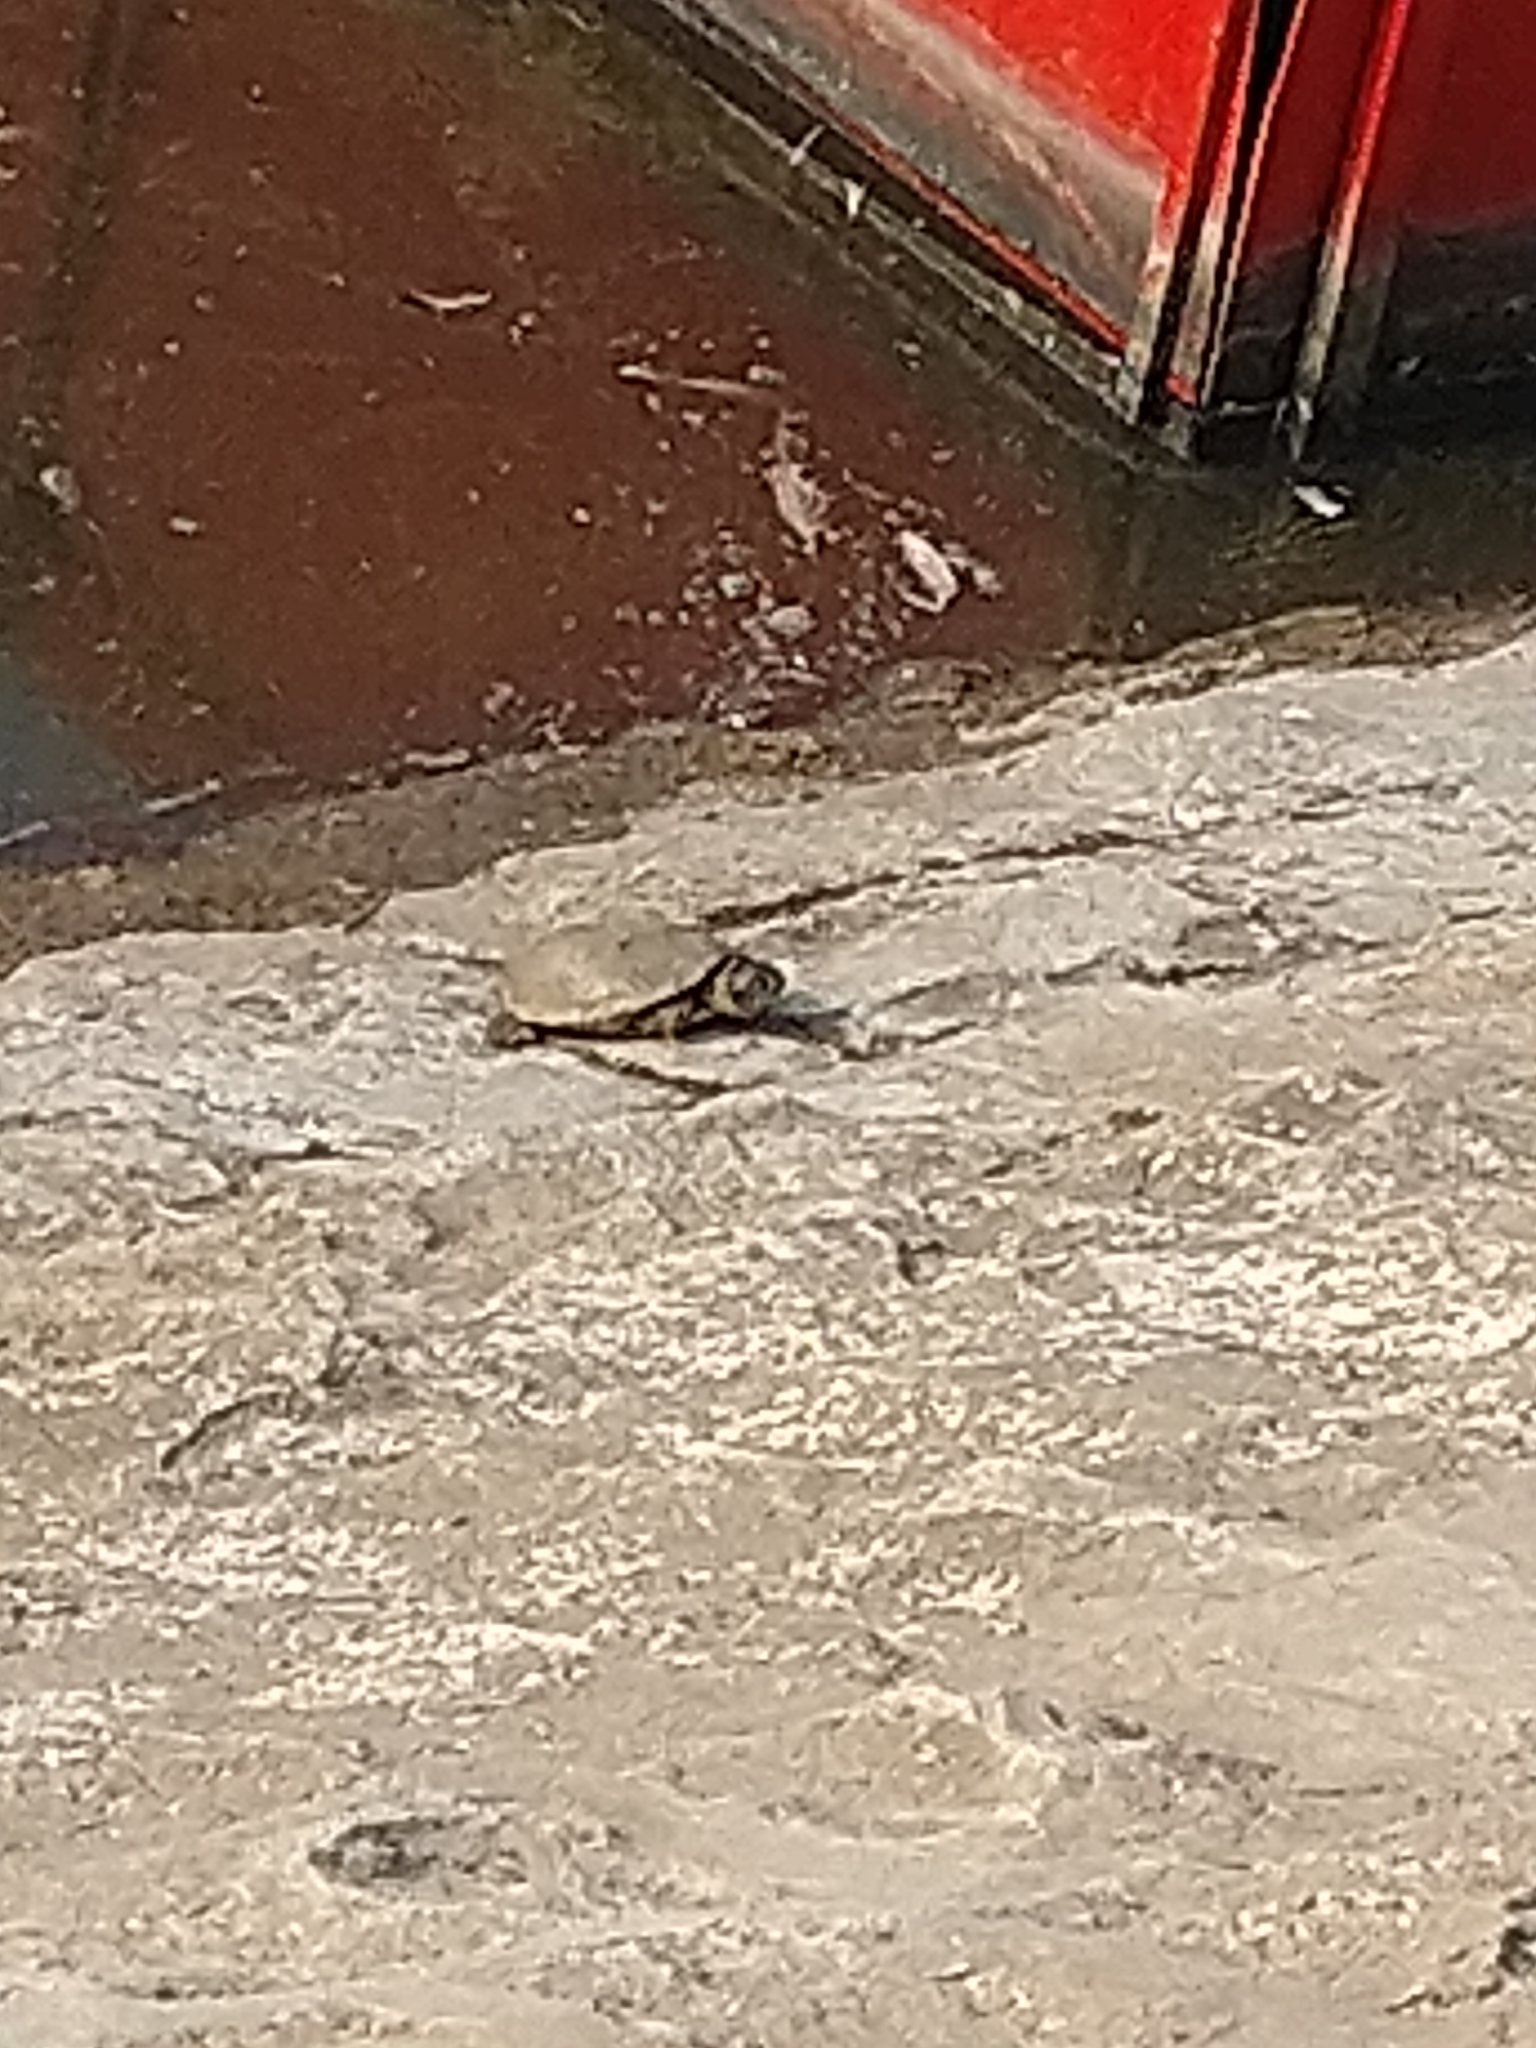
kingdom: Animalia
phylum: Chordata
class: Testudines
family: Emydidae
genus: Emys
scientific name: Emys orbicularis
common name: European pond turtle
